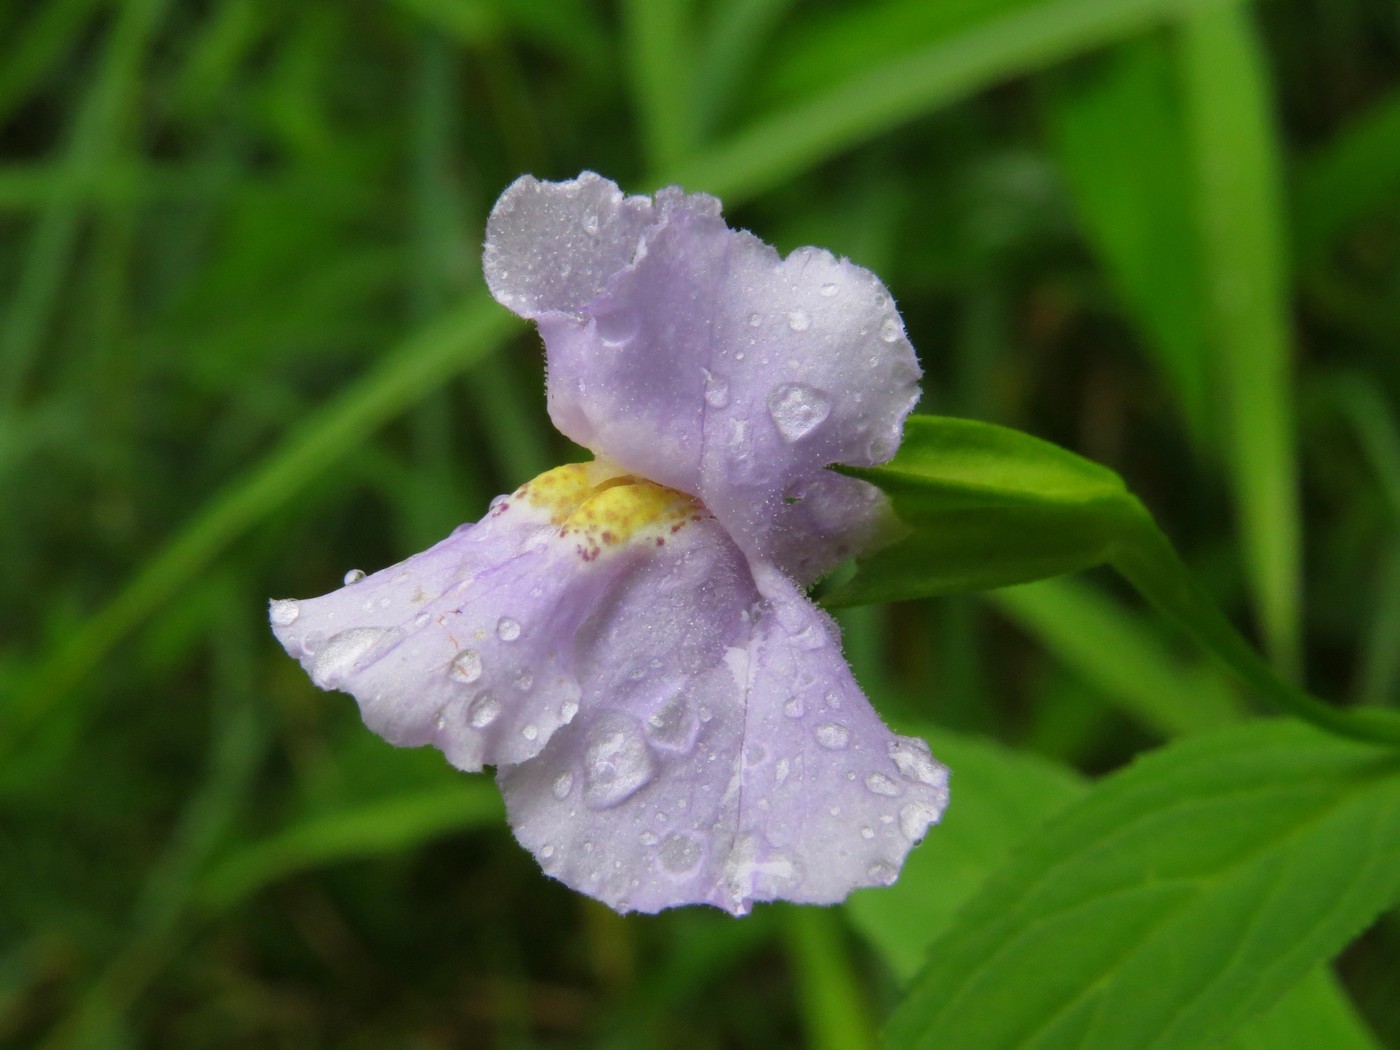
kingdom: Plantae
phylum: Tracheophyta
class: Magnoliopsida
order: Lamiales
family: Phrymaceae
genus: Mimulus
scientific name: Mimulus ringens
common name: Allegheny monkeyflower
